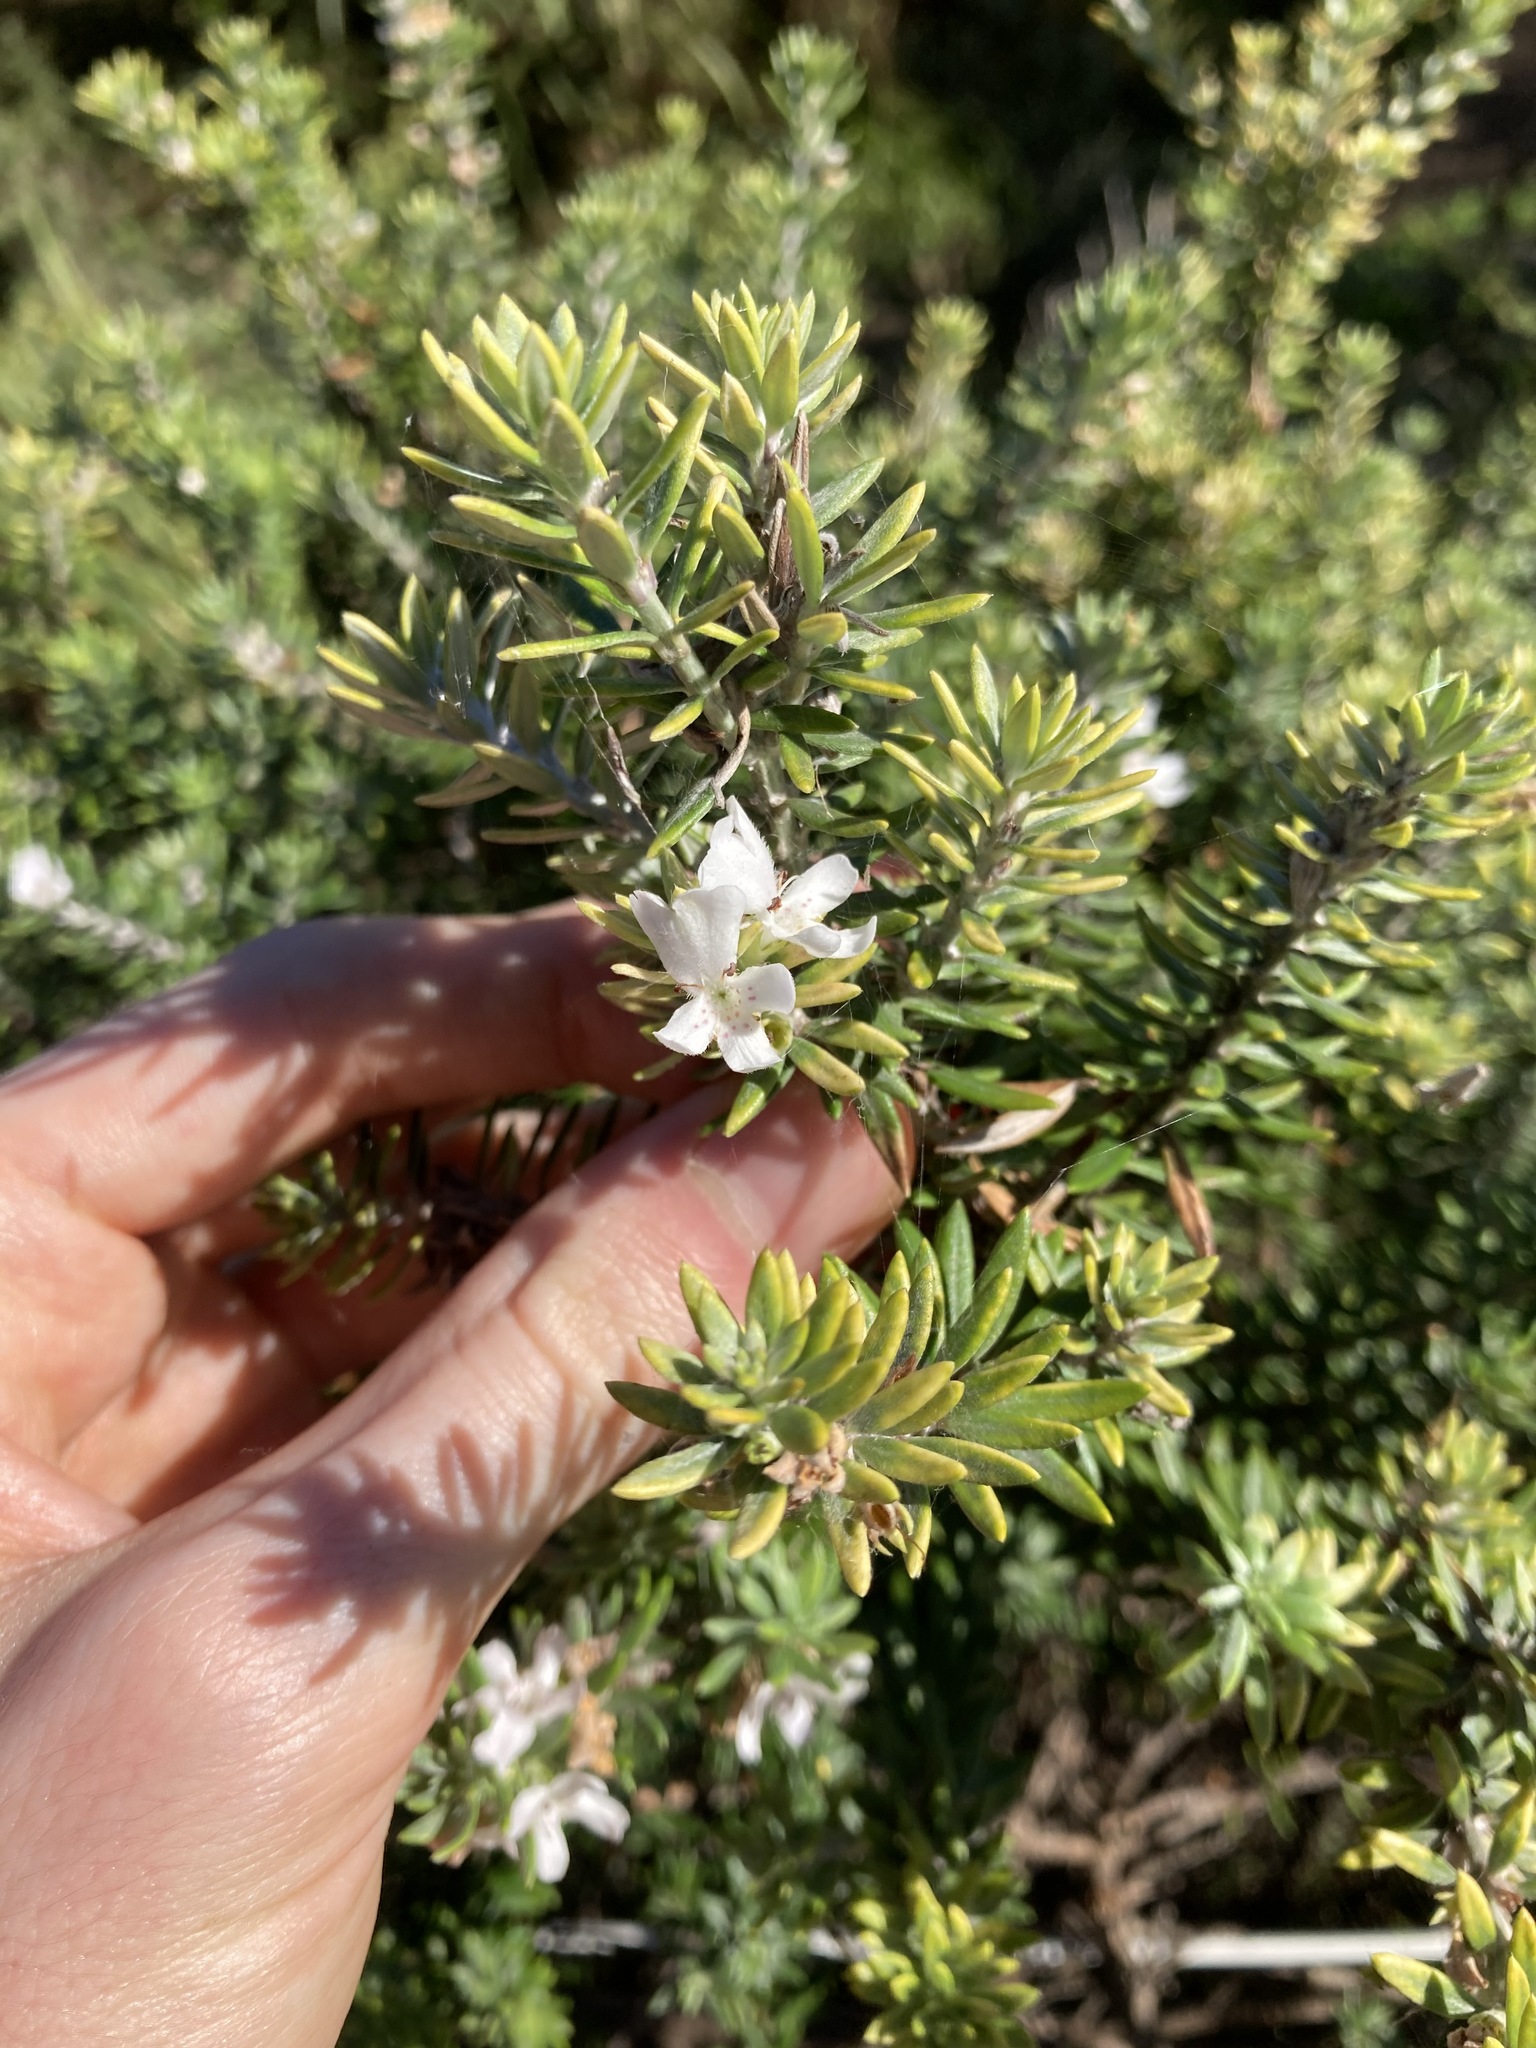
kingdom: Plantae
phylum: Tracheophyta
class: Magnoliopsida
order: Lamiales
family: Lamiaceae
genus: Westringia
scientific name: Westringia fruticosa
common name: Coastal-rosemary
